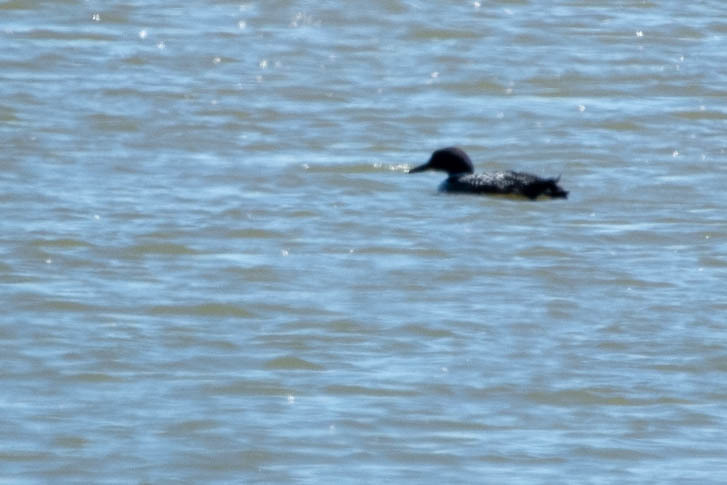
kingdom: Animalia
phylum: Chordata
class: Aves
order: Gaviiformes
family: Gaviidae
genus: Gavia
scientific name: Gavia immer
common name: Common loon
